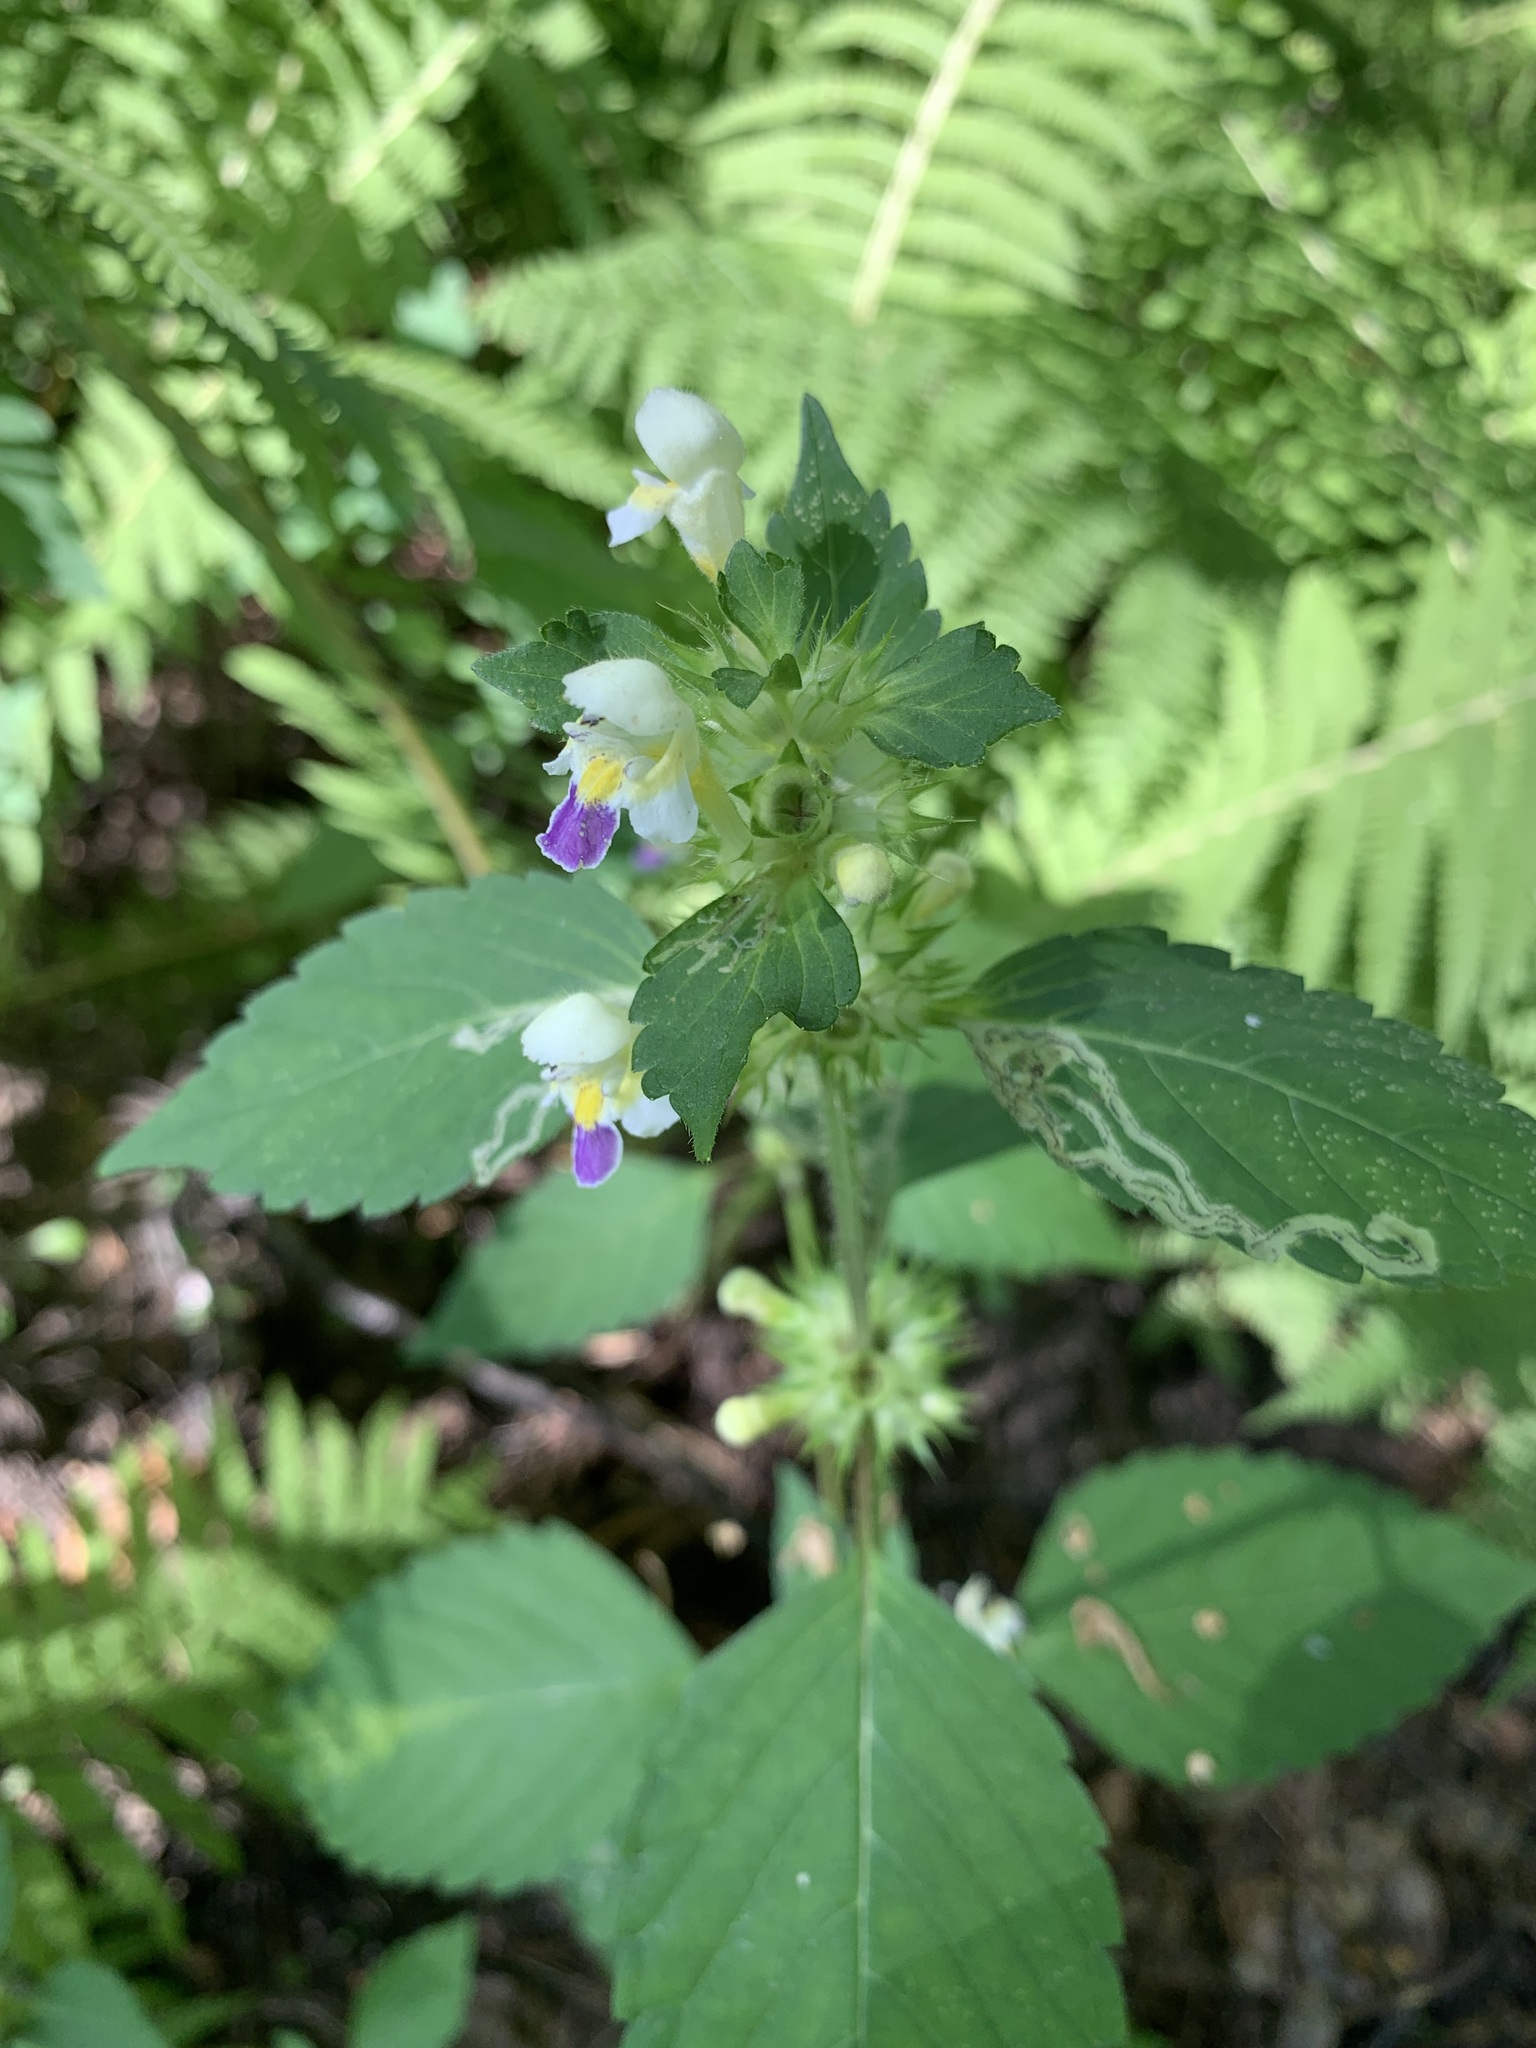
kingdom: Plantae
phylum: Tracheophyta
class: Magnoliopsida
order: Lamiales
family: Lamiaceae
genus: Galeopsis
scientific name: Galeopsis speciosa
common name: Large-flowered hemp-nettle
